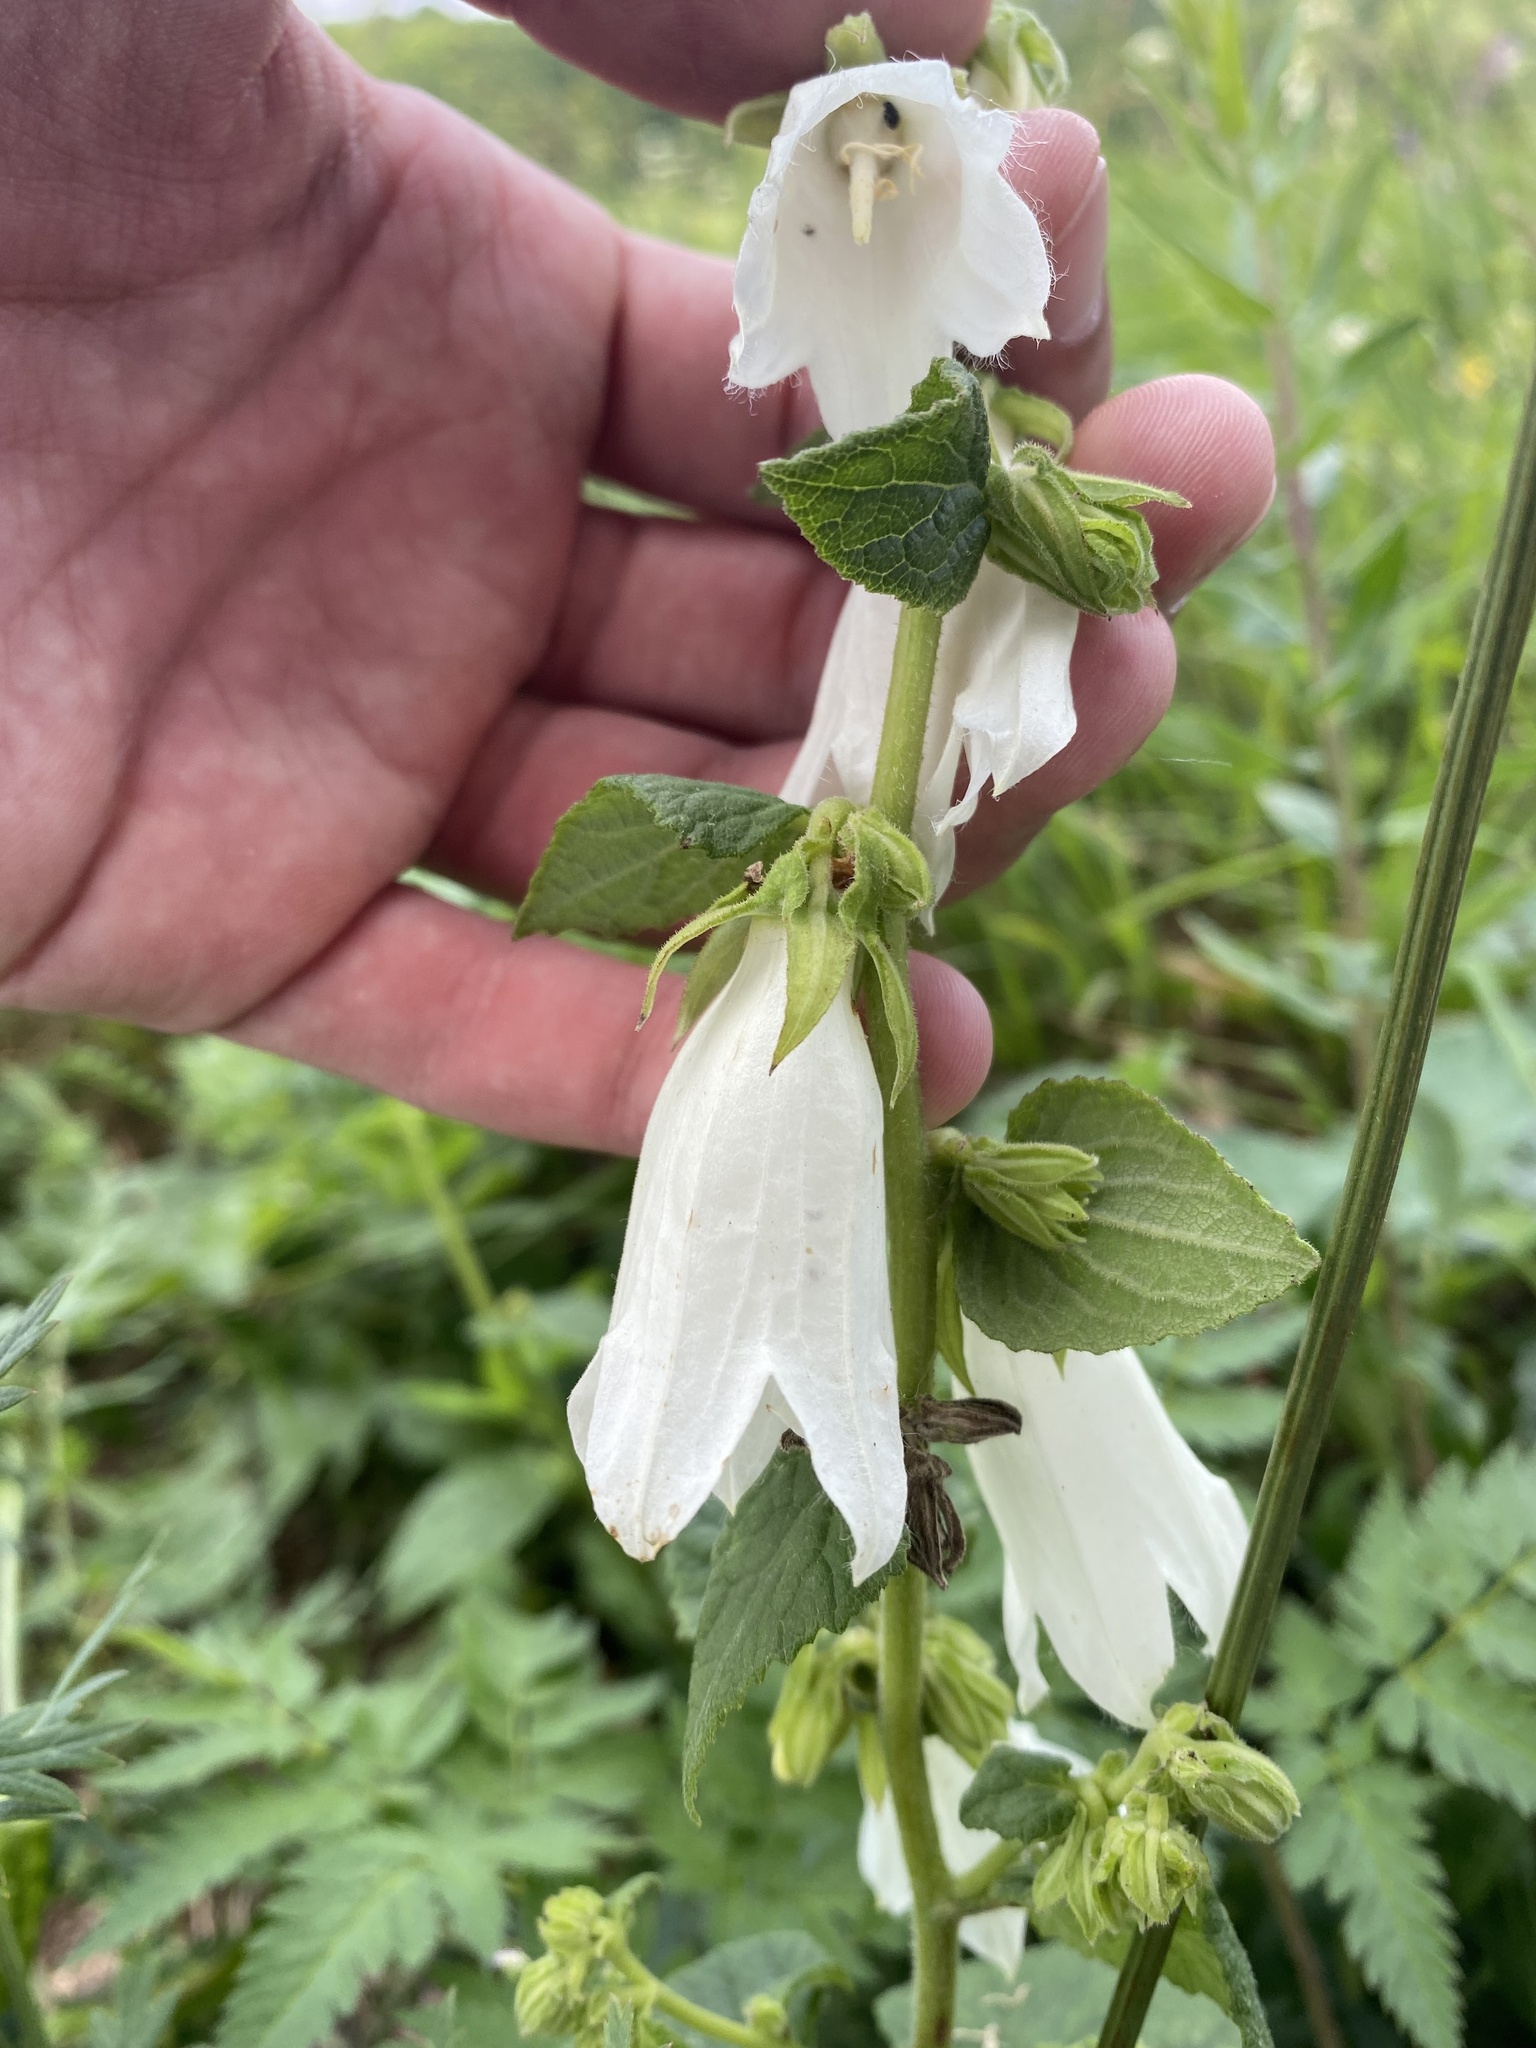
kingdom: Plantae
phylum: Tracheophyta
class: Magnoliopsida
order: Asterales
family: Campanulaceae
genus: Campanula
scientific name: Campanula alliariifolia
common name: Cornish bellflower
